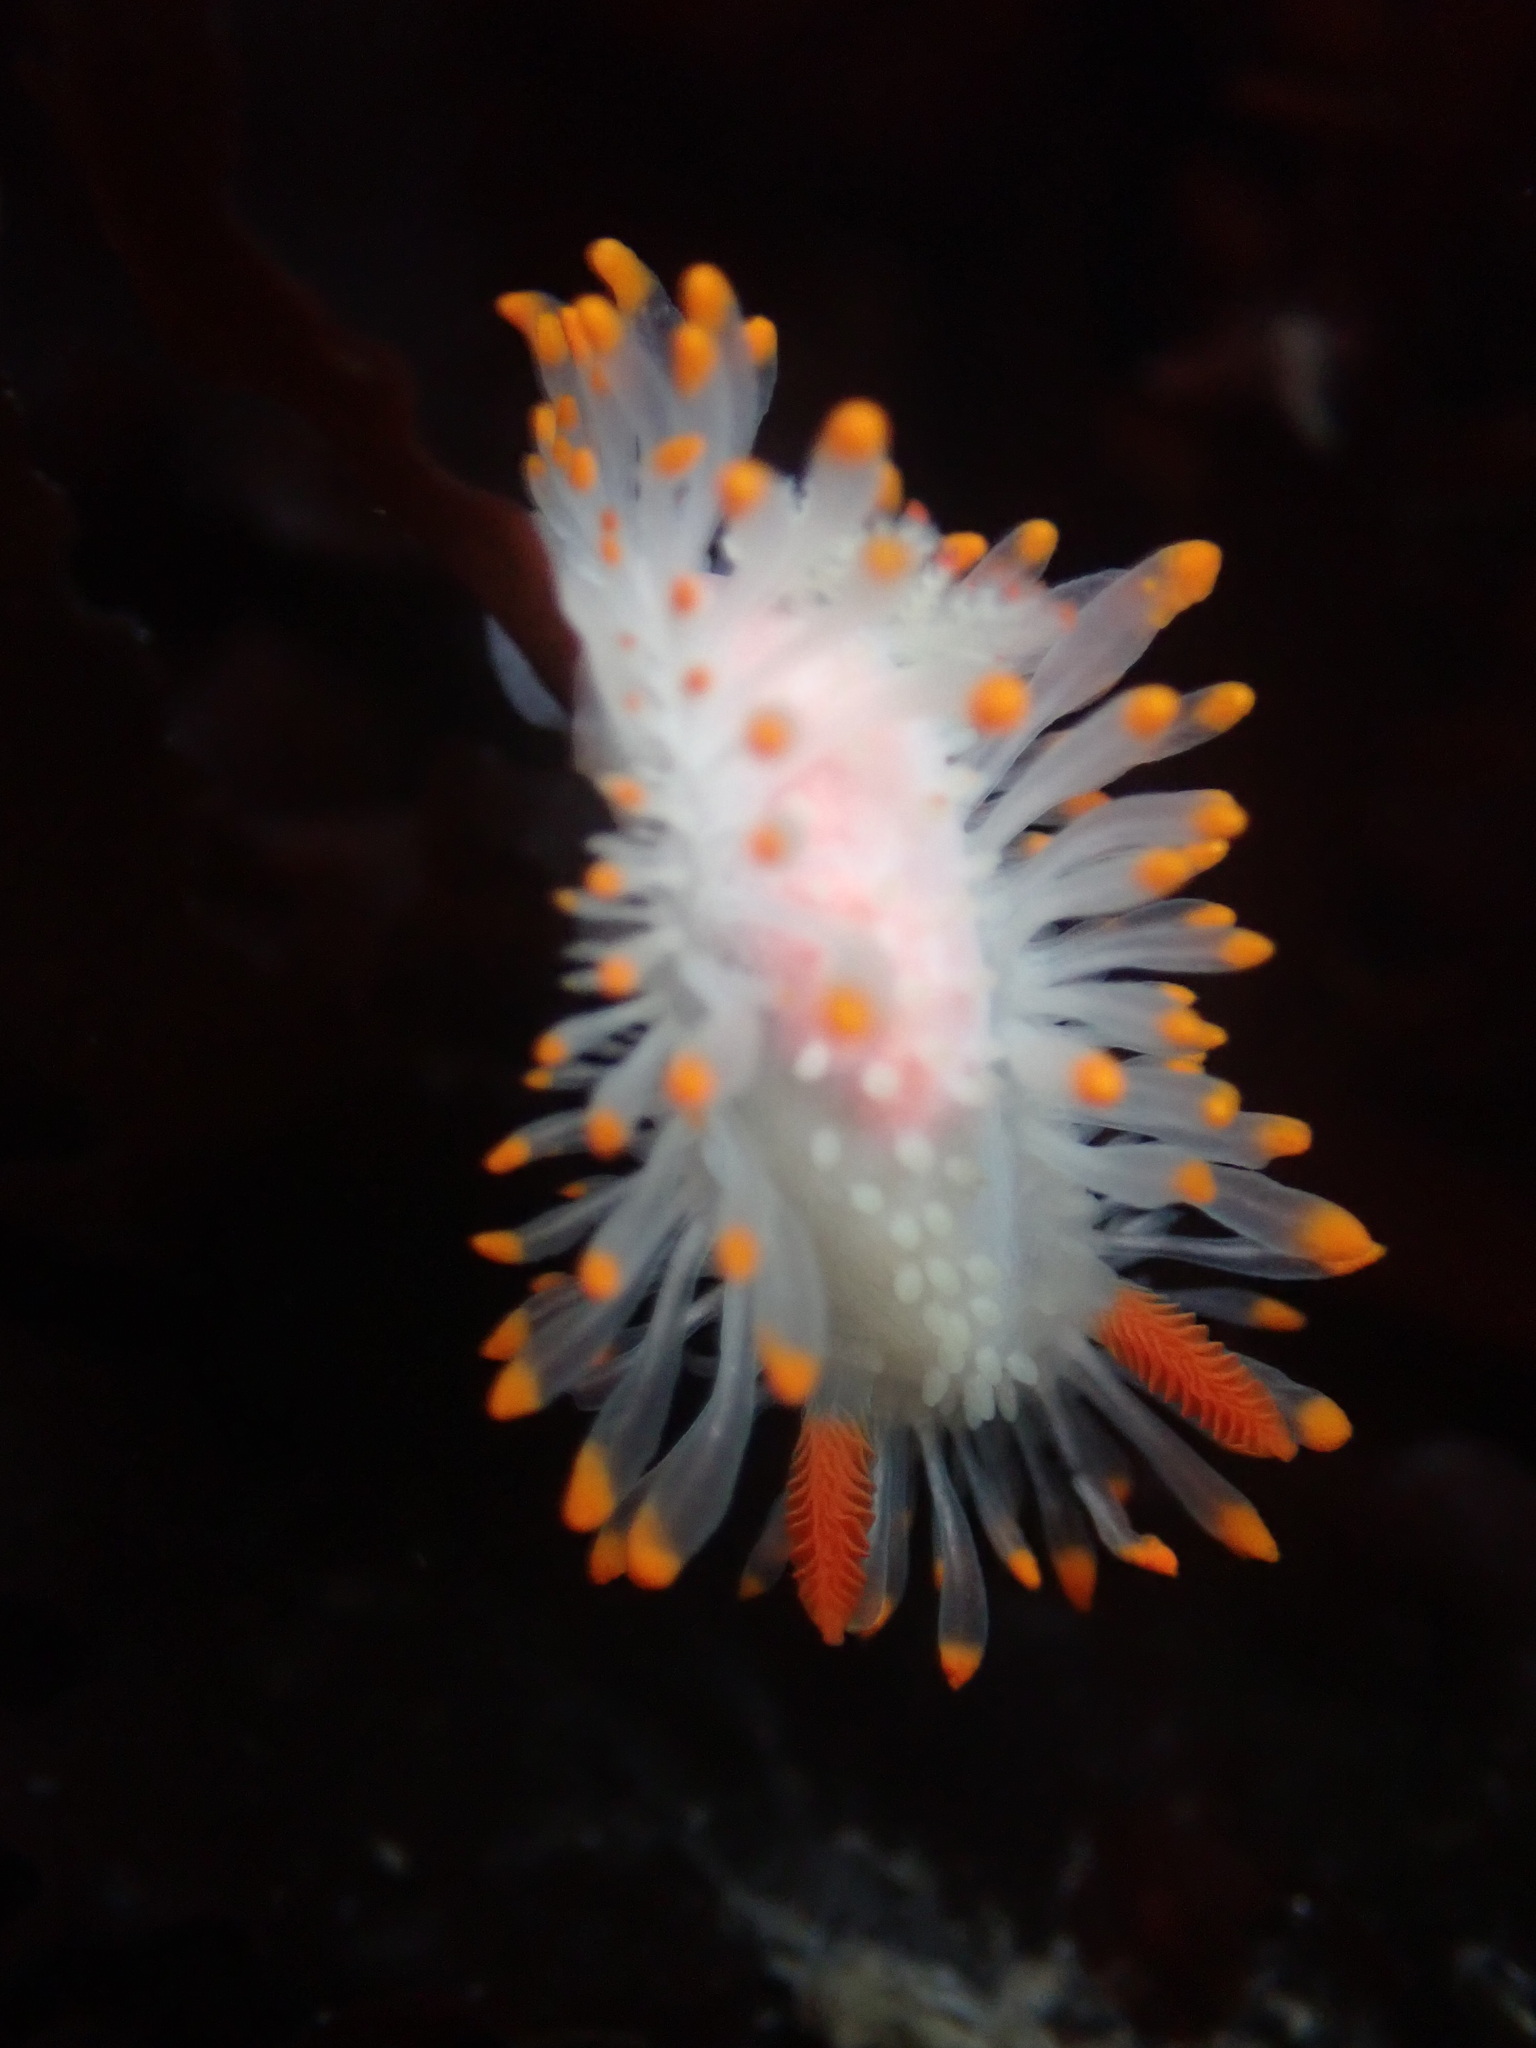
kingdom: Animalia
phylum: Mollusca
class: Gastropoda
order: Nudibranchia
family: Polyceridae
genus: Limacia
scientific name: Limacia cockerelli
